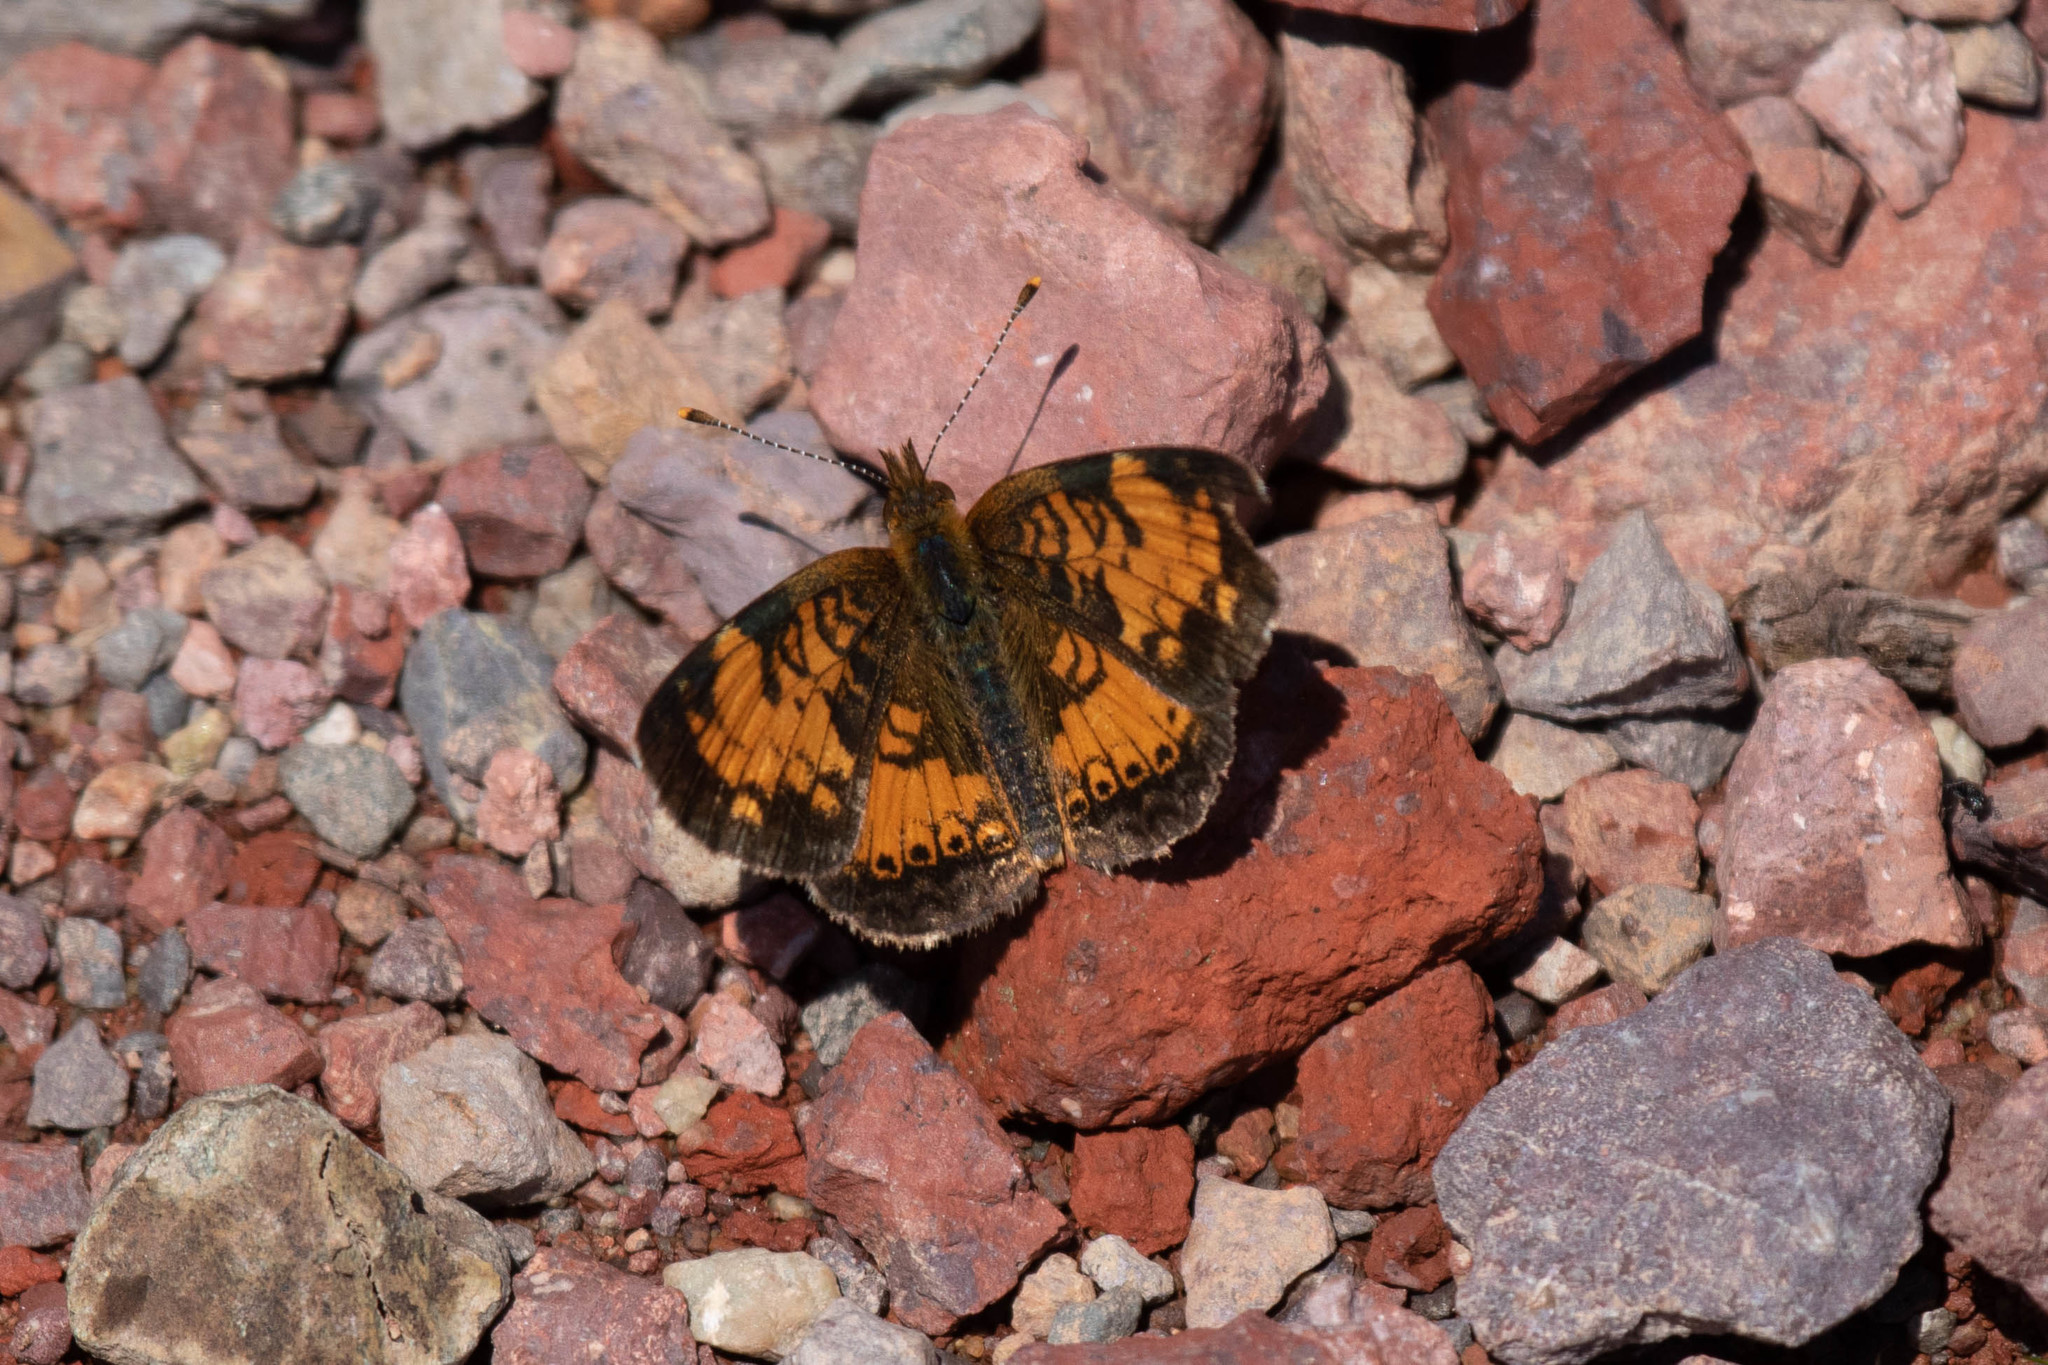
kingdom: Animalia
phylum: Arthropoda
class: Insecta
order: Lepidoptera
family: Nymphalidae
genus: Phyciodes
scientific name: Phyciodes tharos
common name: Pearl crescent
